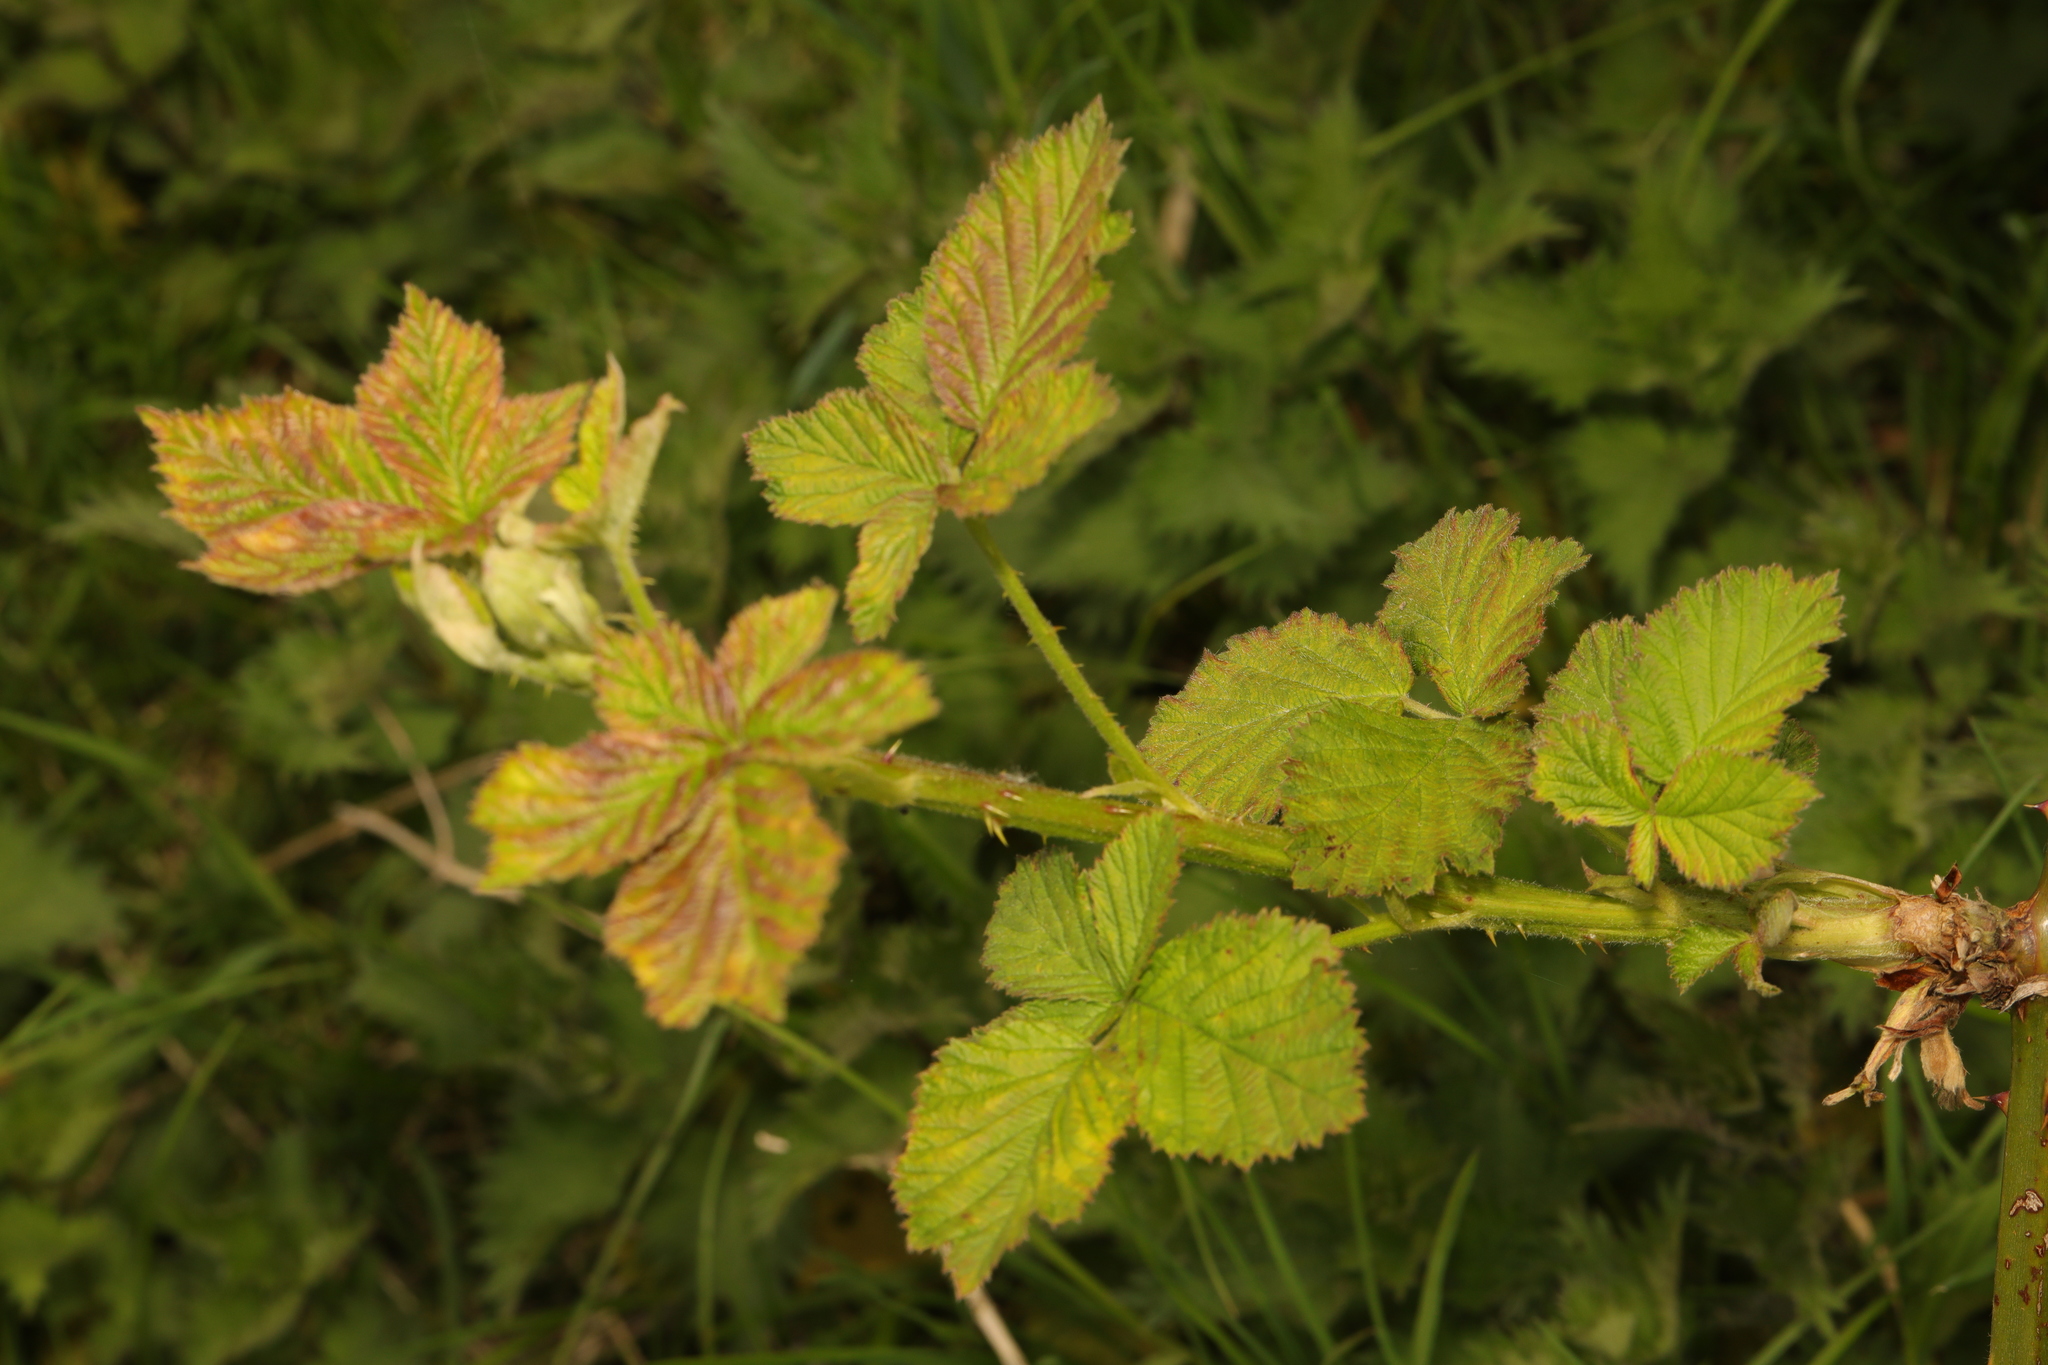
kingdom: Plantae
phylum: Tracheophyta
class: Magnoliopsida
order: Rosales
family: Rosaceae
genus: Rubus
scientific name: Rubus armeniacus
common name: Himalayan blackberry
